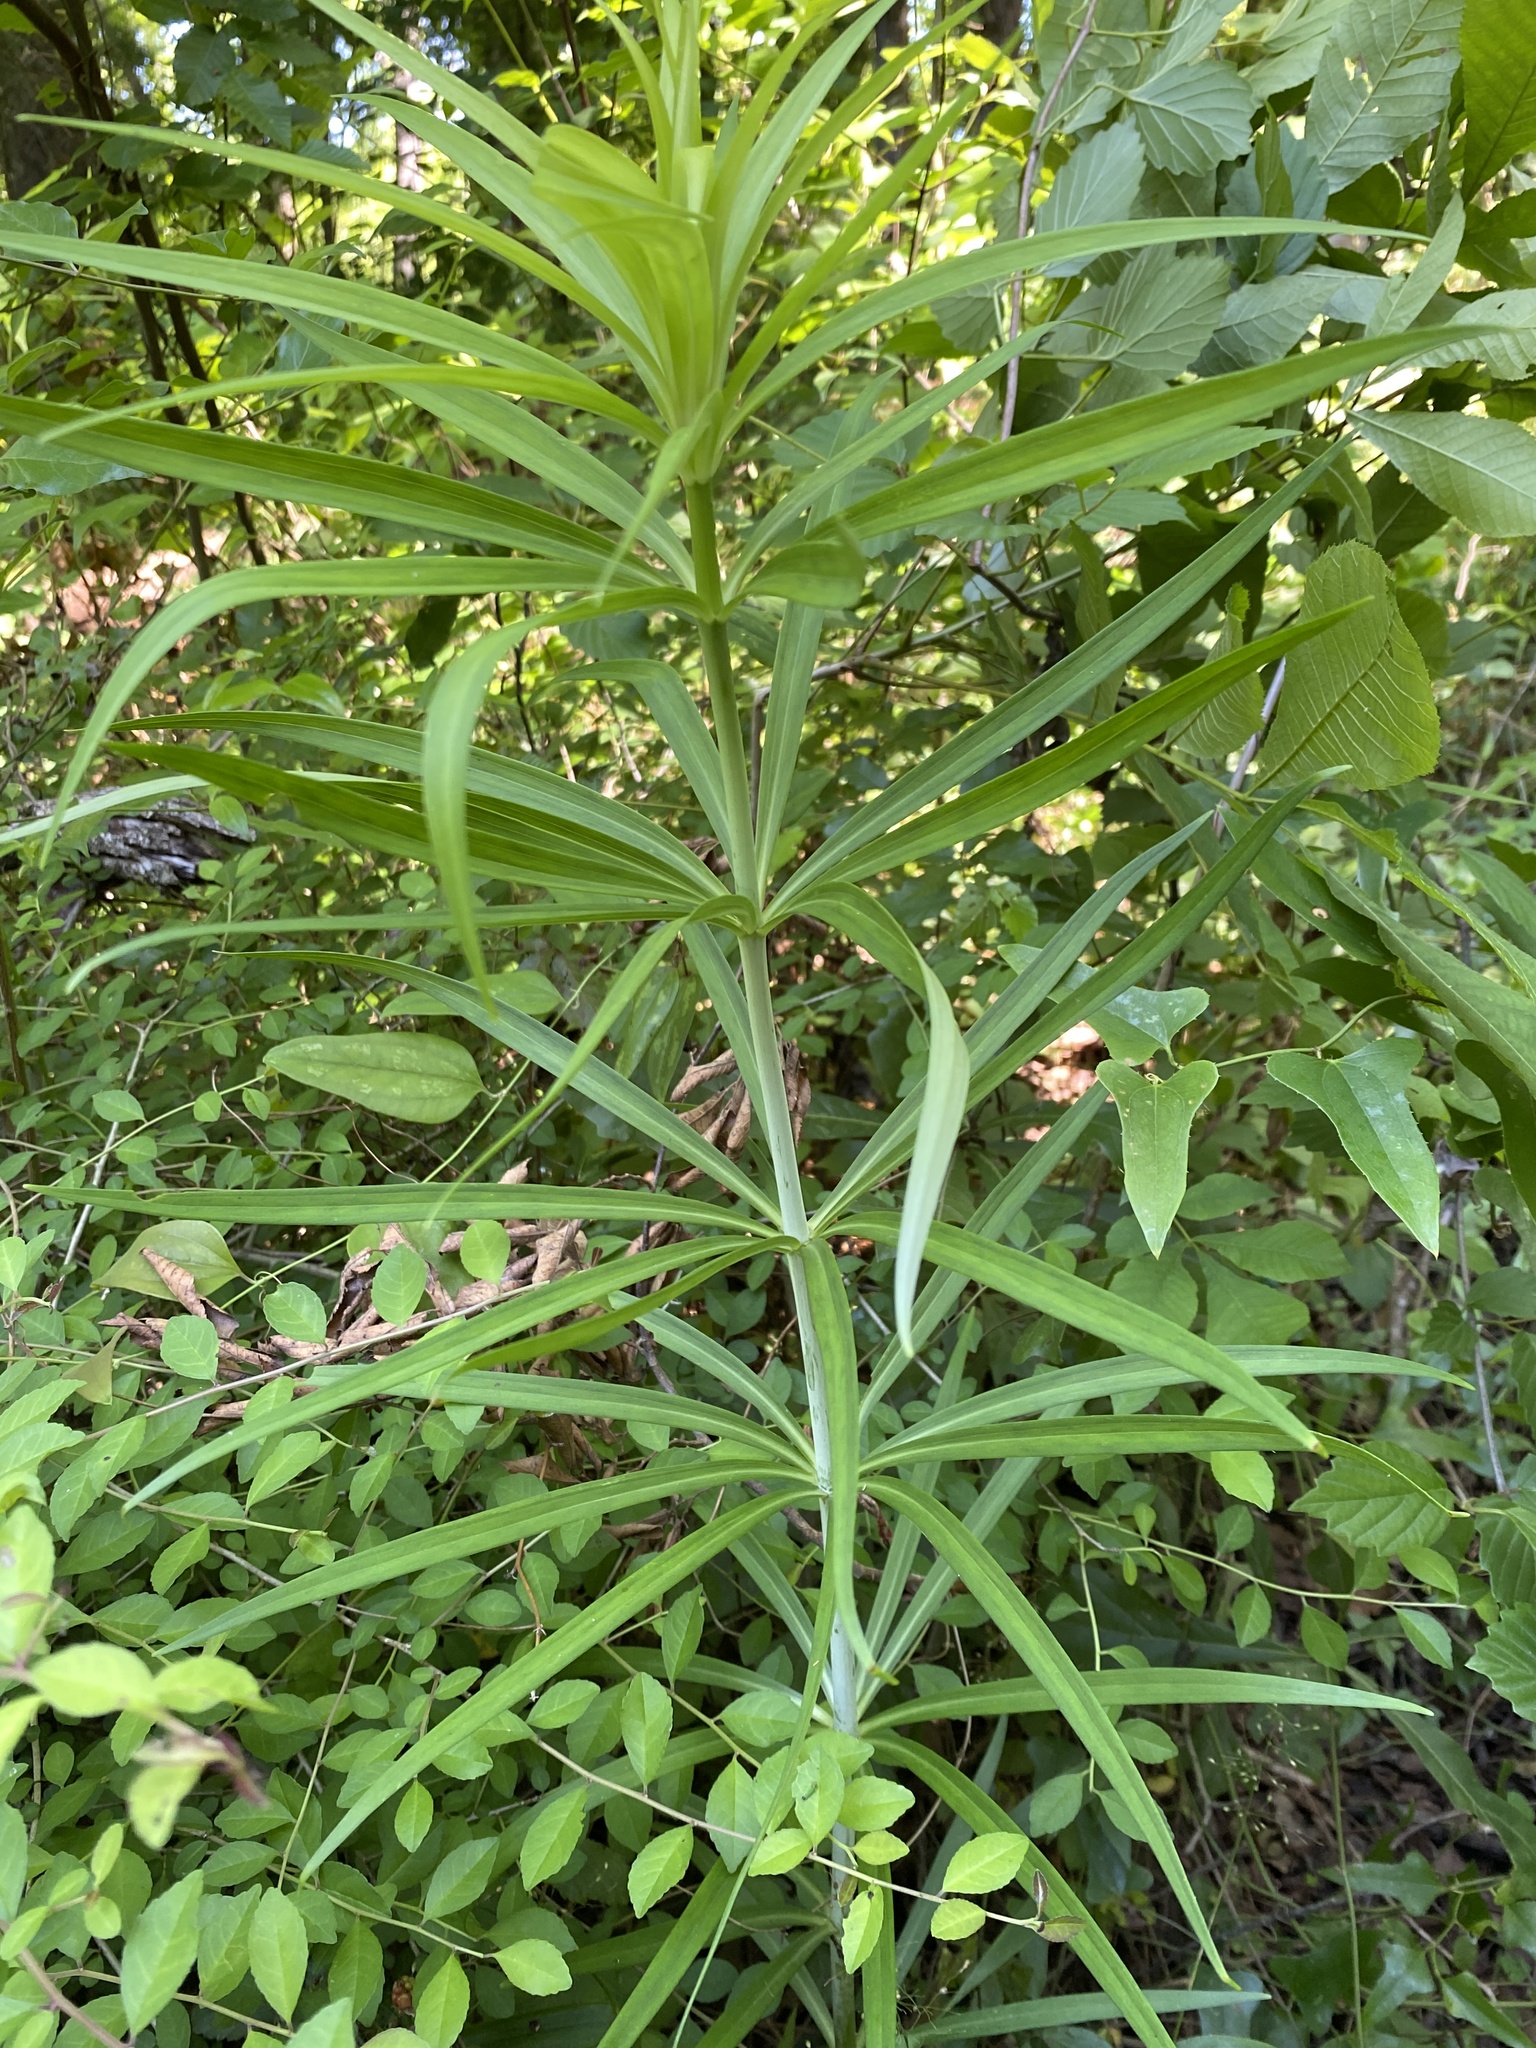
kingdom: Plantae
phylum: Tracheophyta
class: Liliopsida
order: Liliales
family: Liliaceae
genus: Lilium
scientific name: Lilium superbum
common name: American turk's-cap lily
